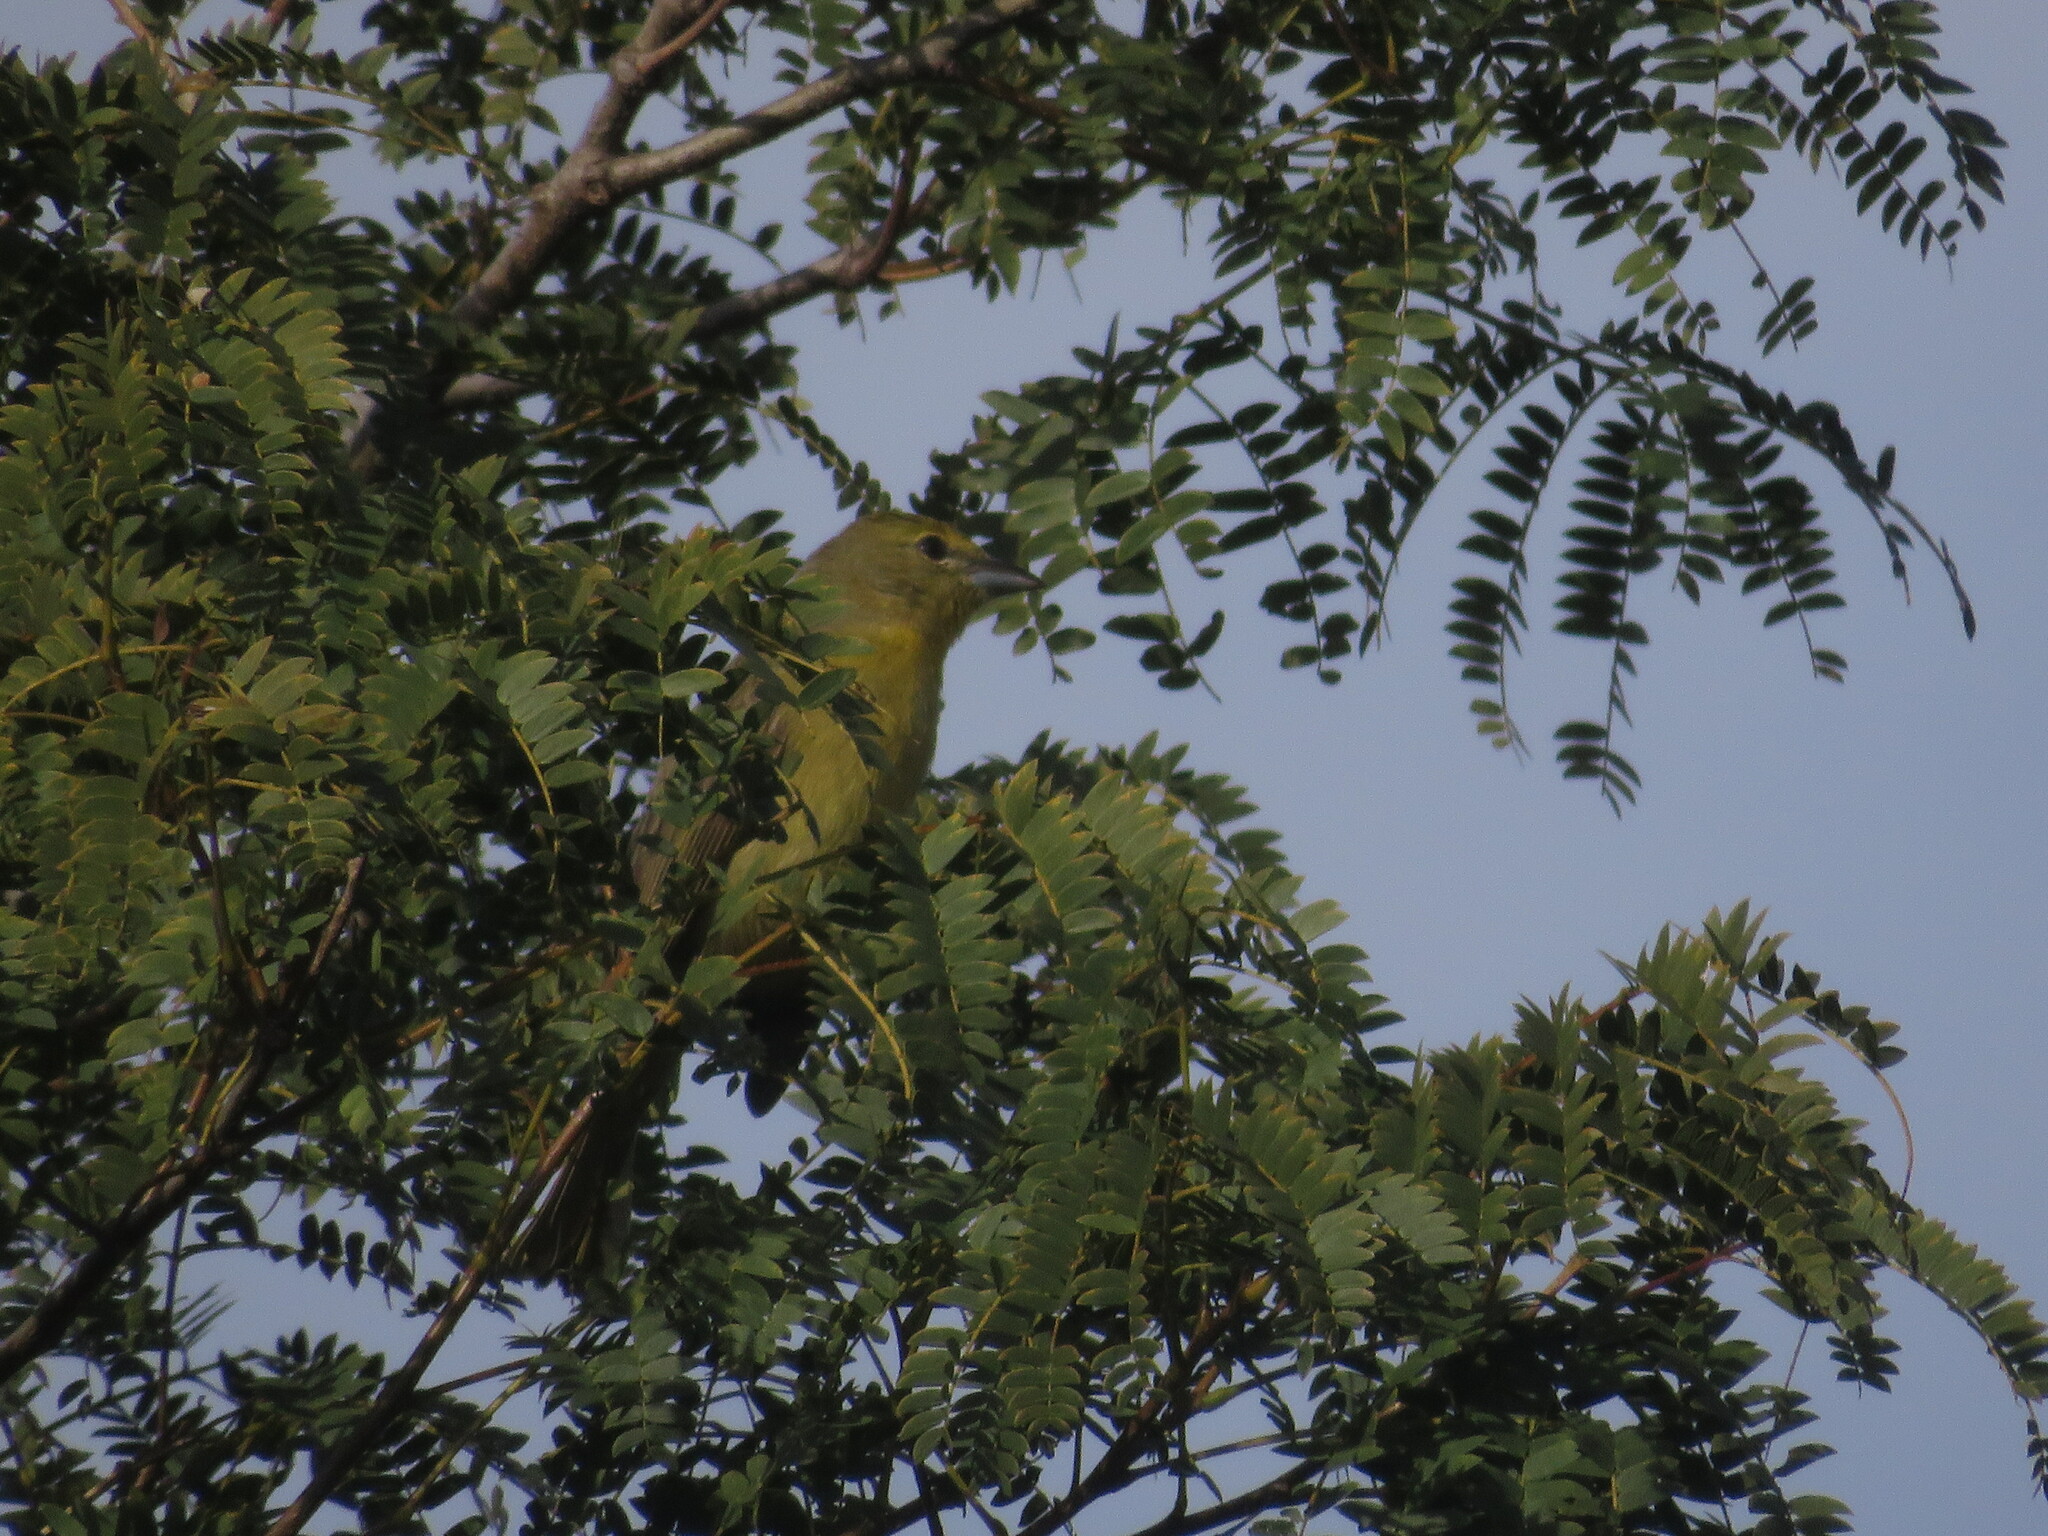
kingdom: Animalia
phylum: Chordata
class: Aves
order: Passeriformes
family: Cardinalidae
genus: Piranga
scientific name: Piranga flava
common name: Red tanager
